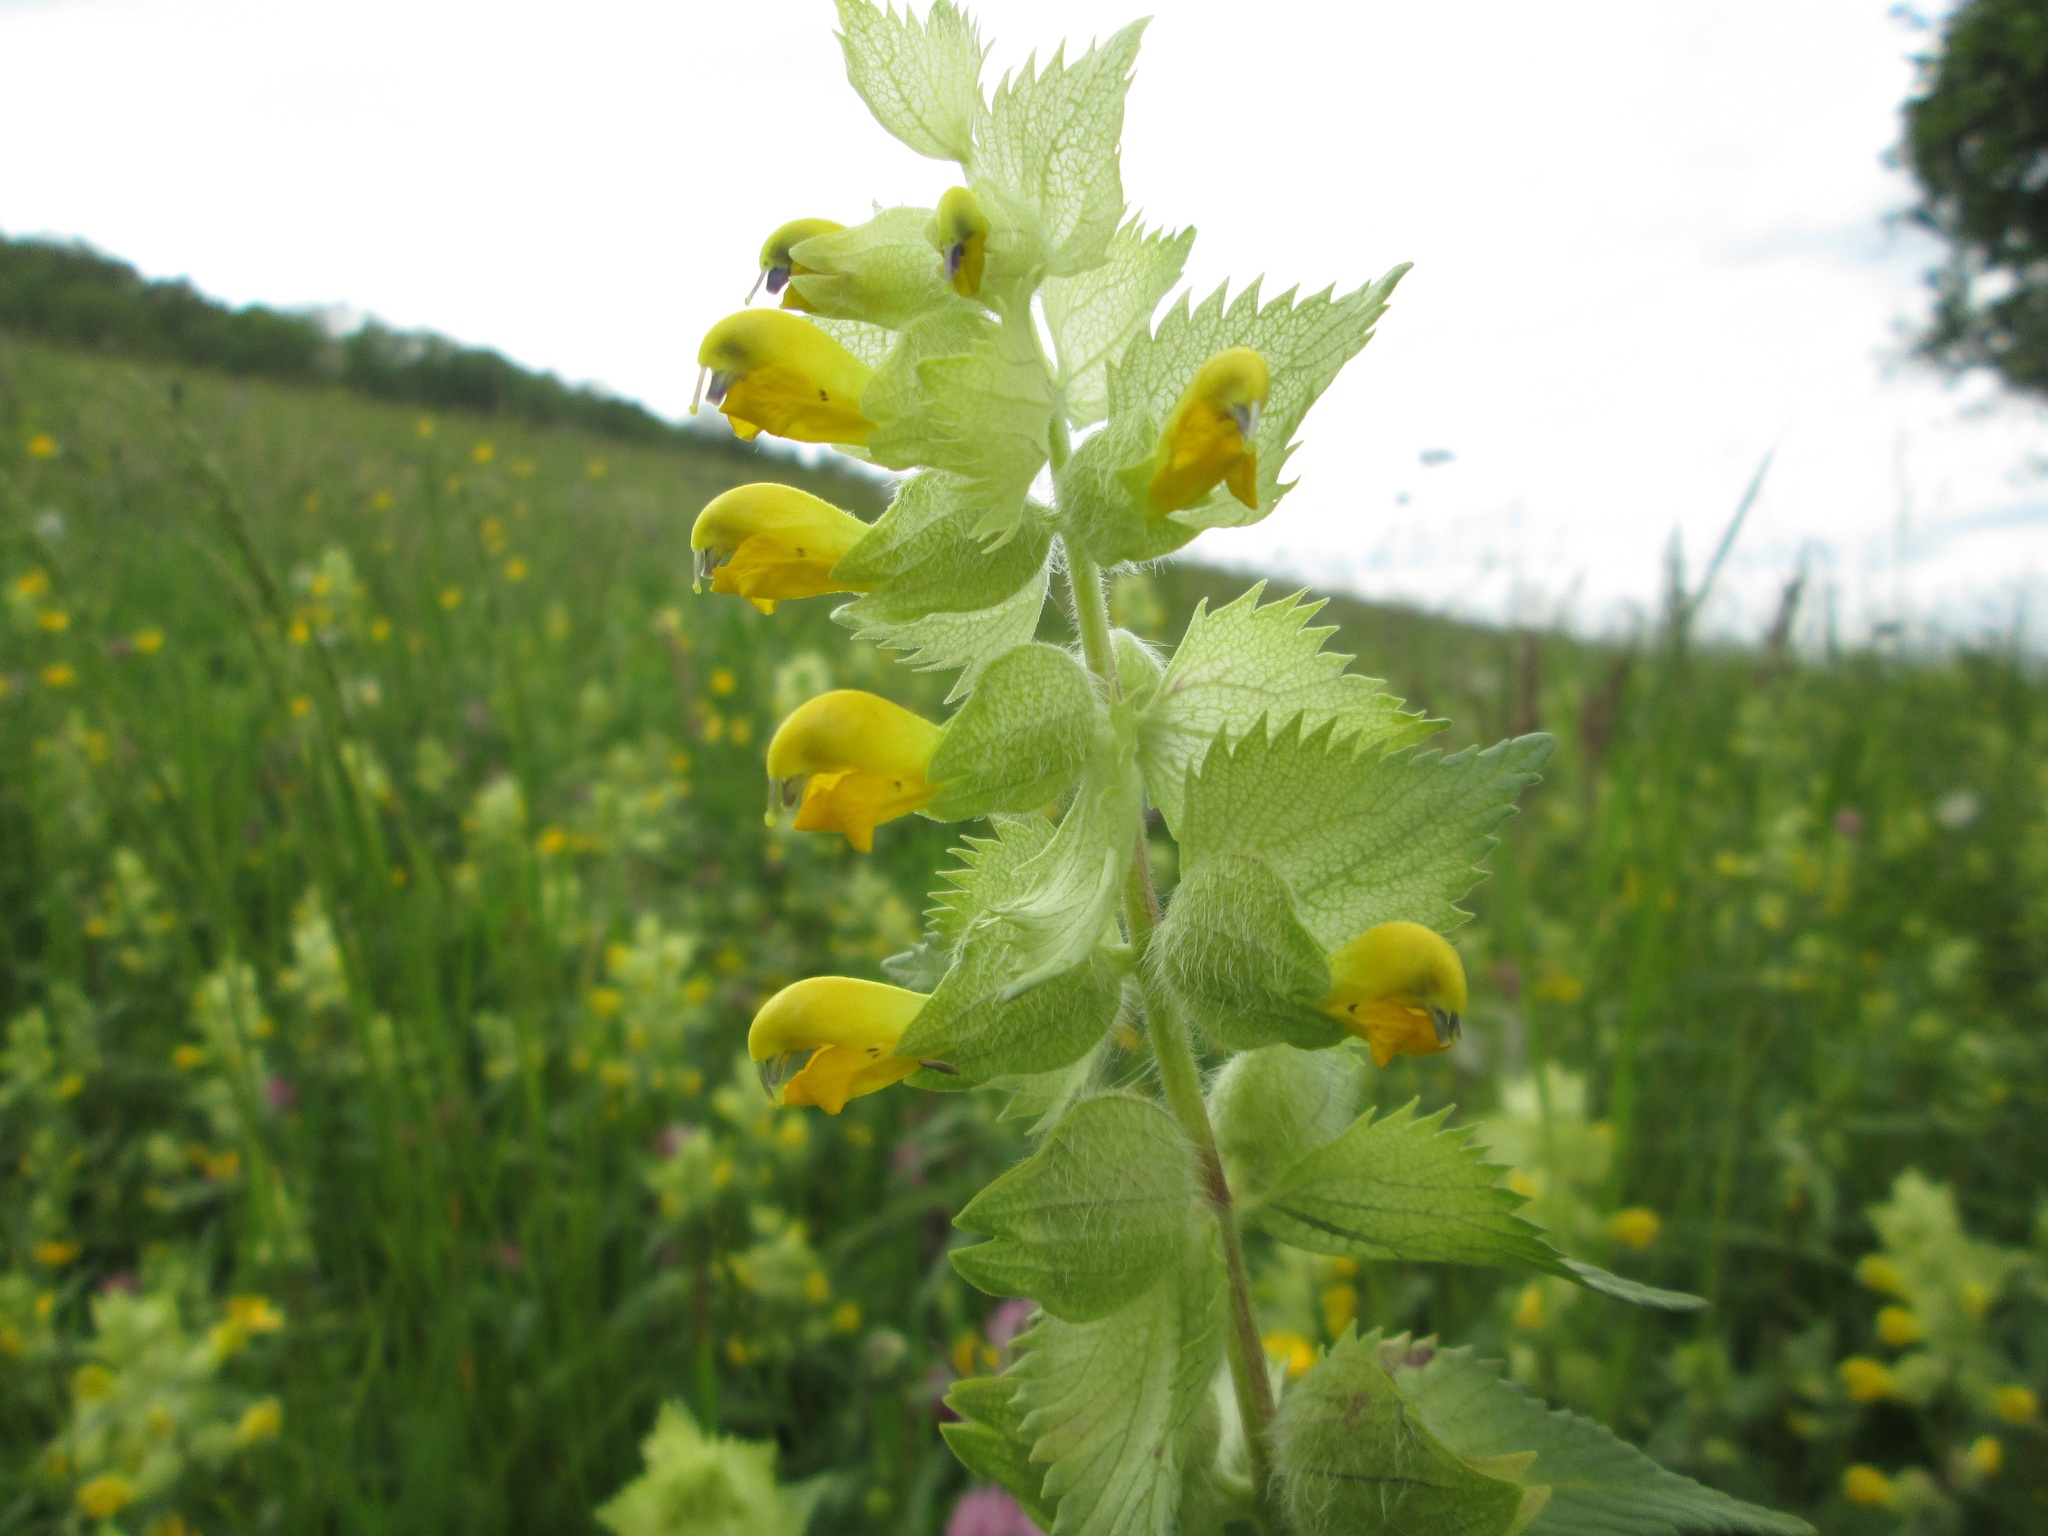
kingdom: Plantae
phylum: Tracheophyta
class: Magnoliopsida
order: Lamiales
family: Orobanchaceae
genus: Rhinanthus
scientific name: Rhinanthus alectorolophus
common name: Greater yellow-rattle
